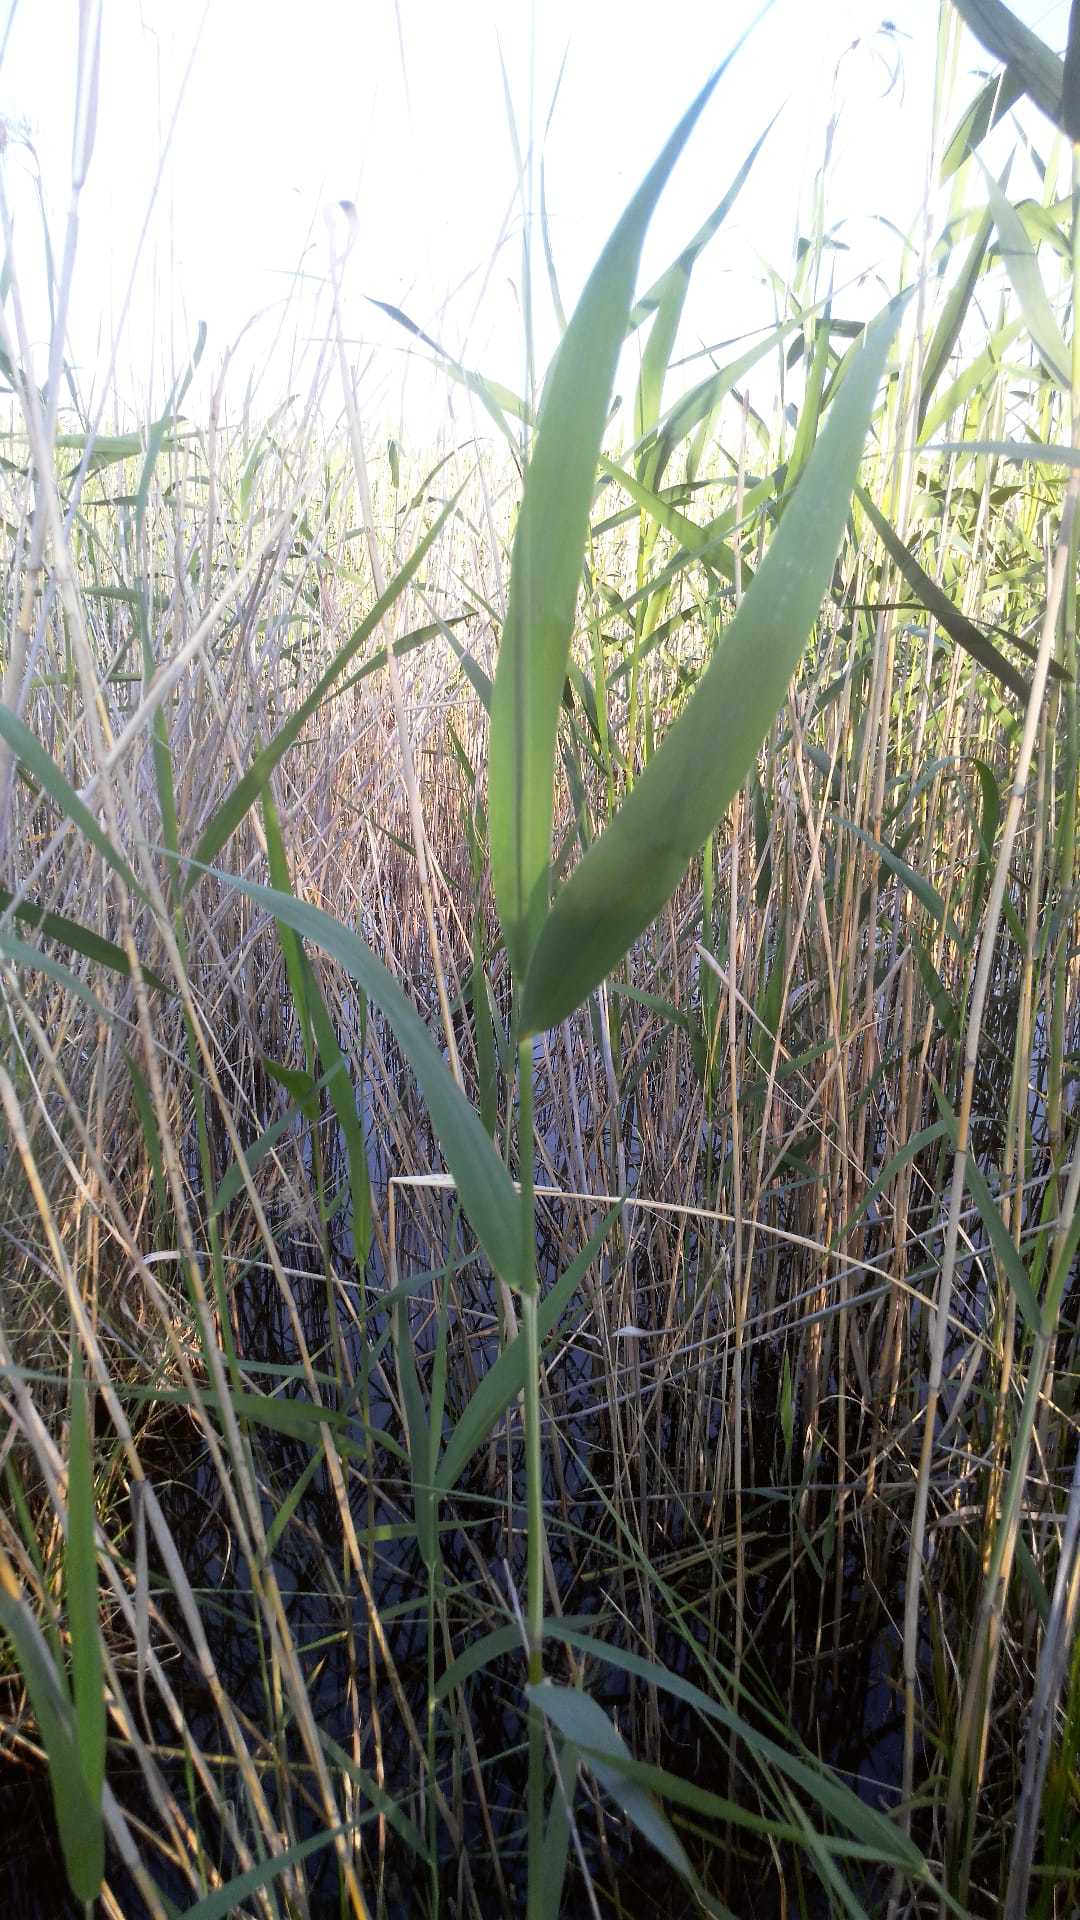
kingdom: Plantae
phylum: Tracheophyta
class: Liliopsida
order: Poales
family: Poaceae
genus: Phragmites
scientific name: Phragmites australis
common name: Common reed
